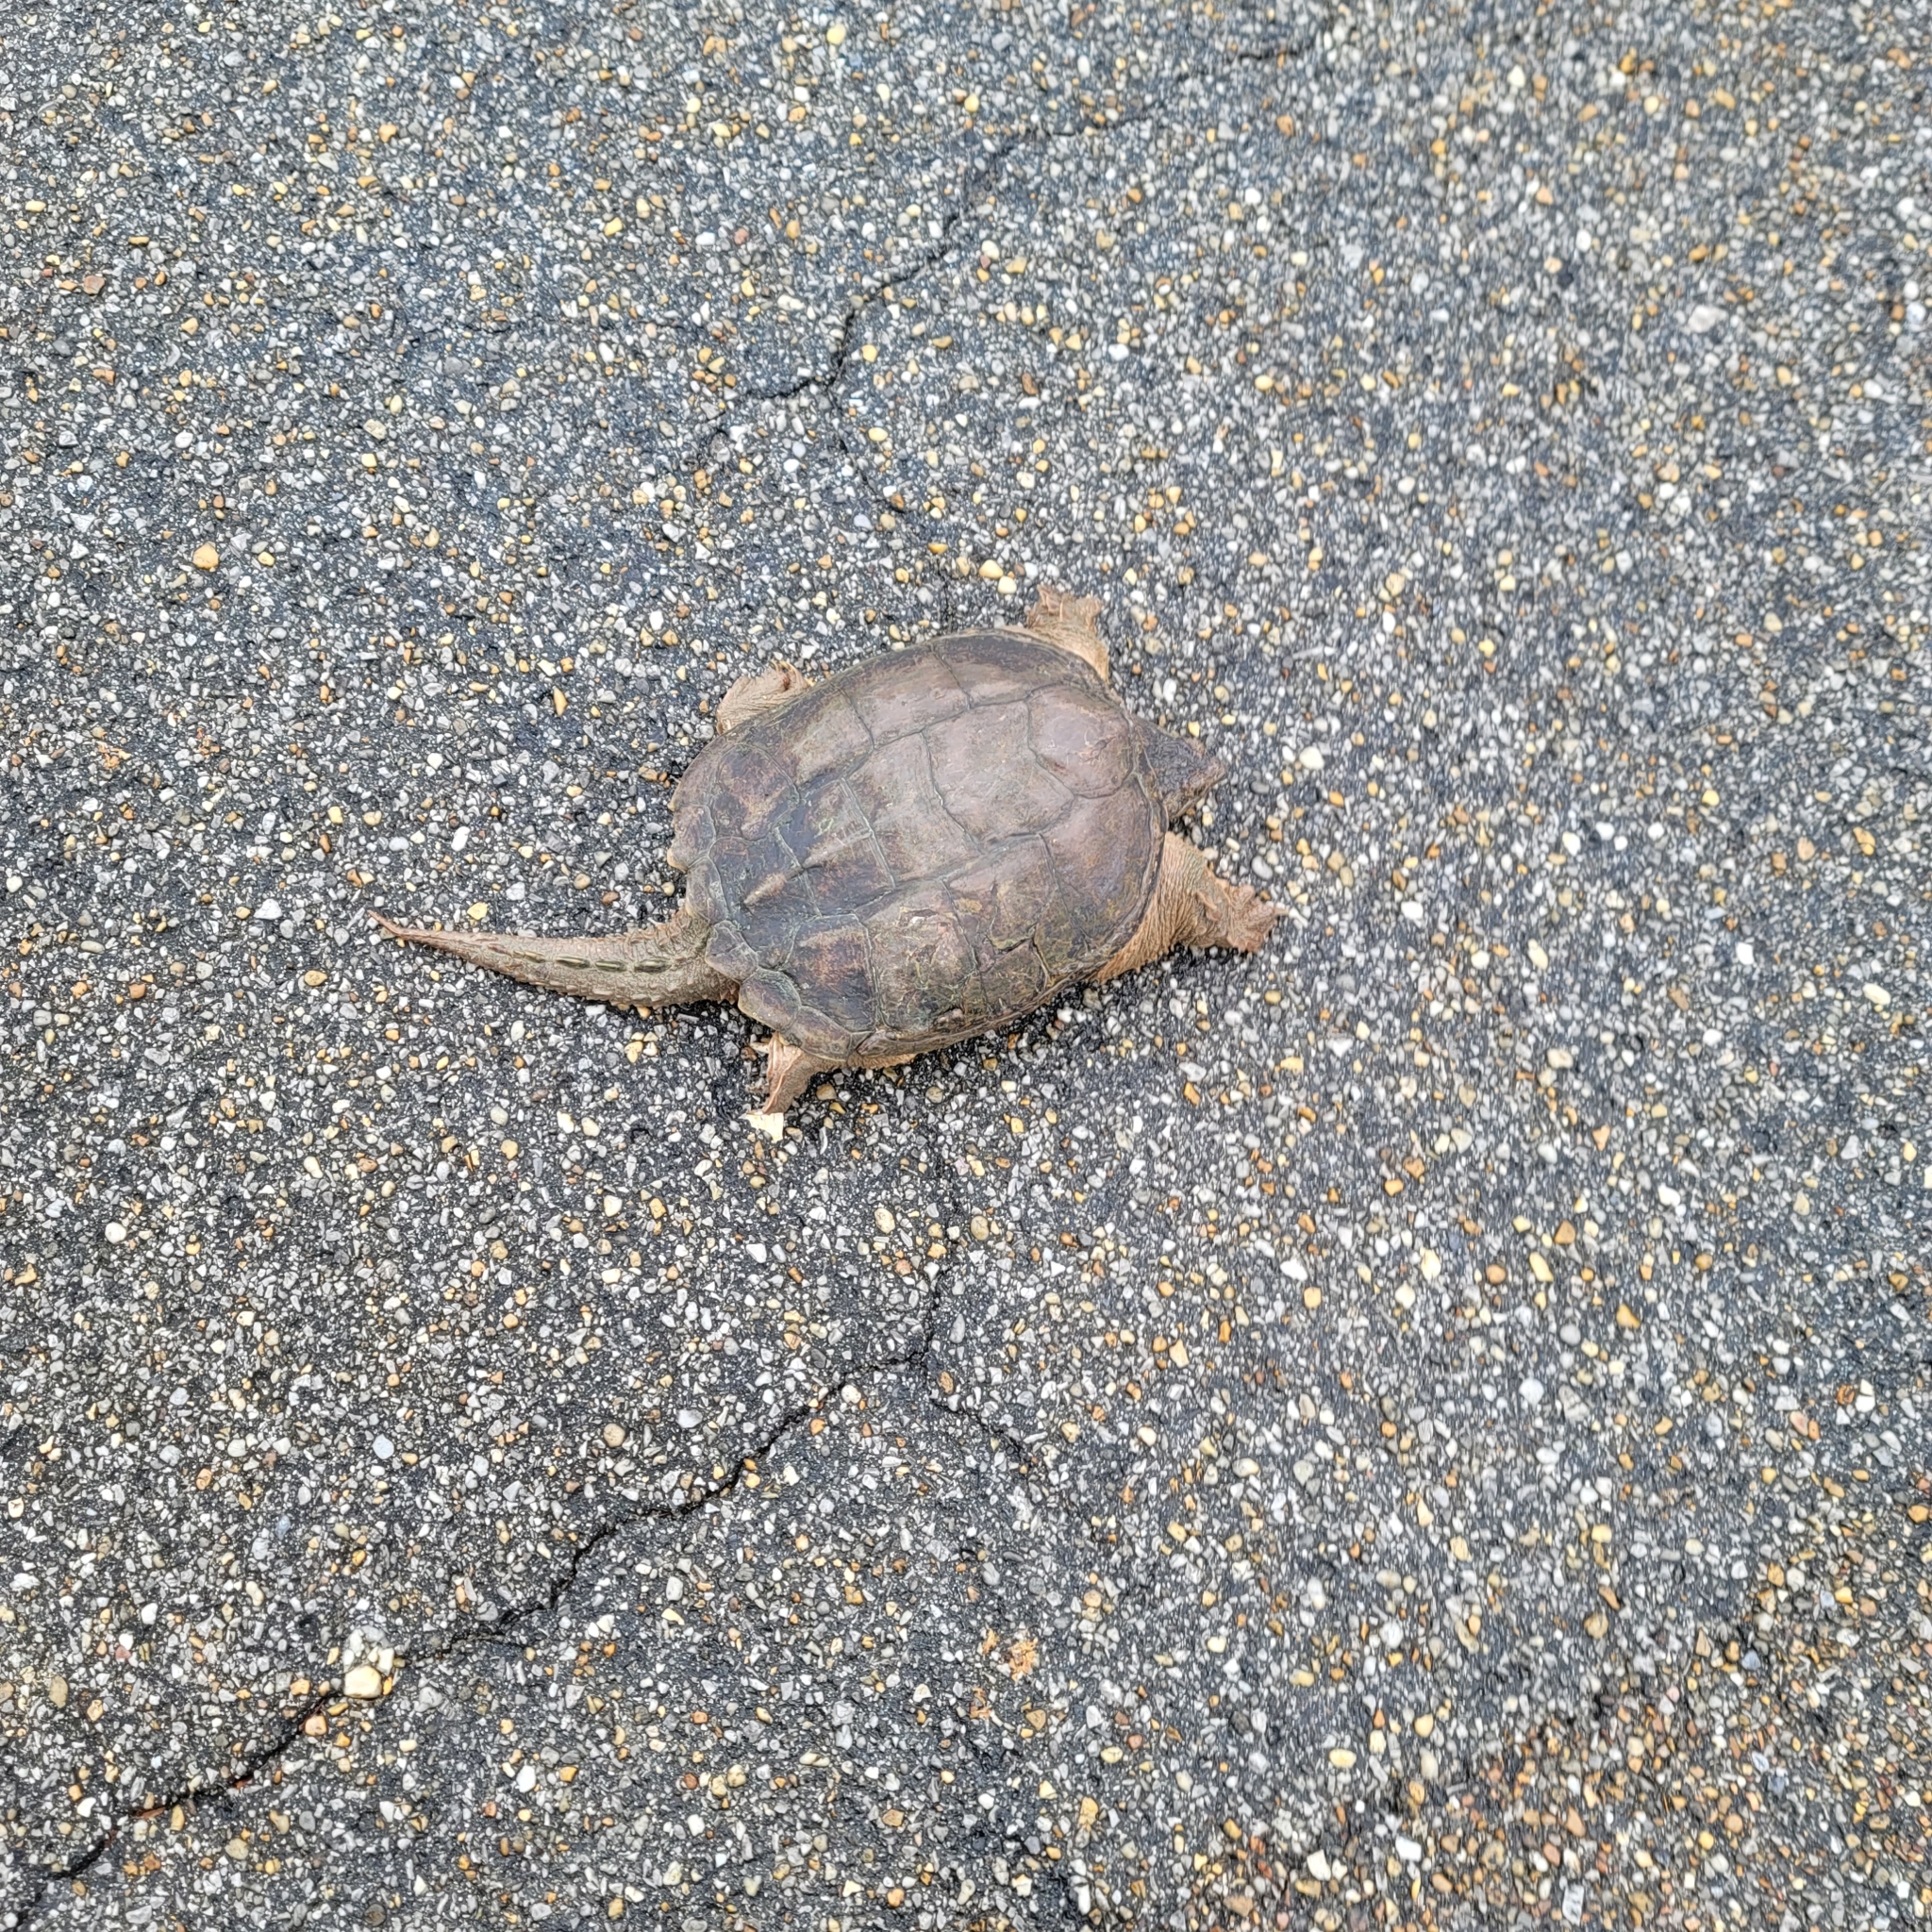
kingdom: Animalia
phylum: Chordata
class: Testudines
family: Chelydridae
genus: Chelydra
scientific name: Chelydra serpentina
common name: Common snapping turtle
